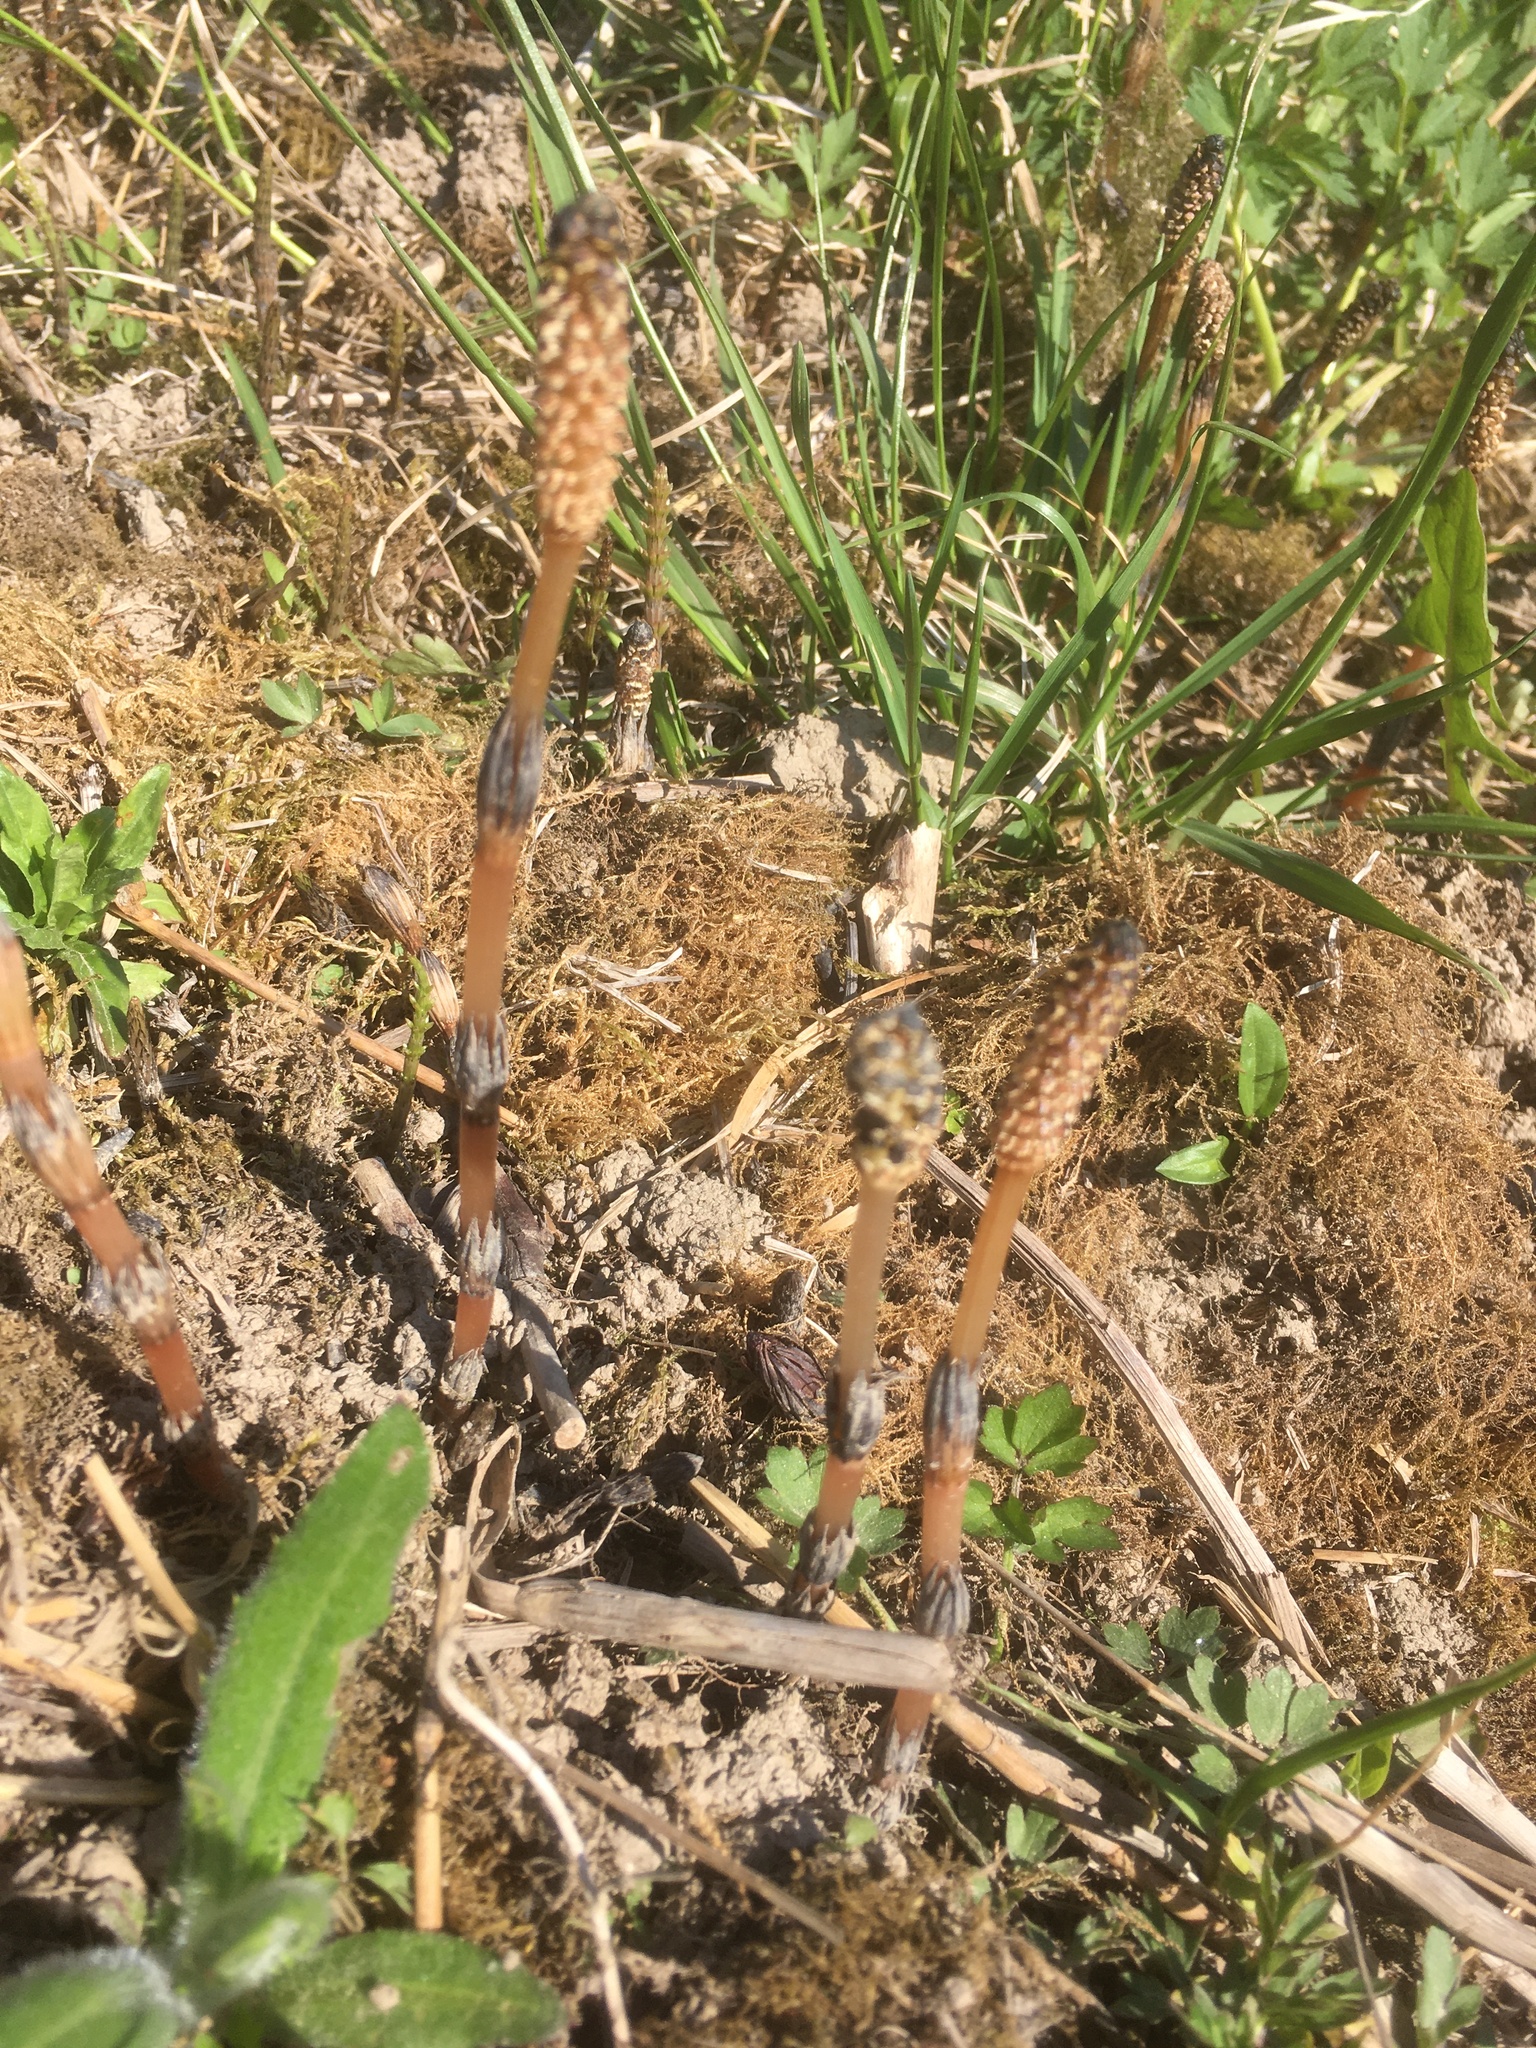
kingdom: Plantae
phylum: Tracheophyta
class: Polypodiopsida
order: Equisetales
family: Equisetaceae
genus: Equisetum
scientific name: Equisetum arvense
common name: Field horsetail
